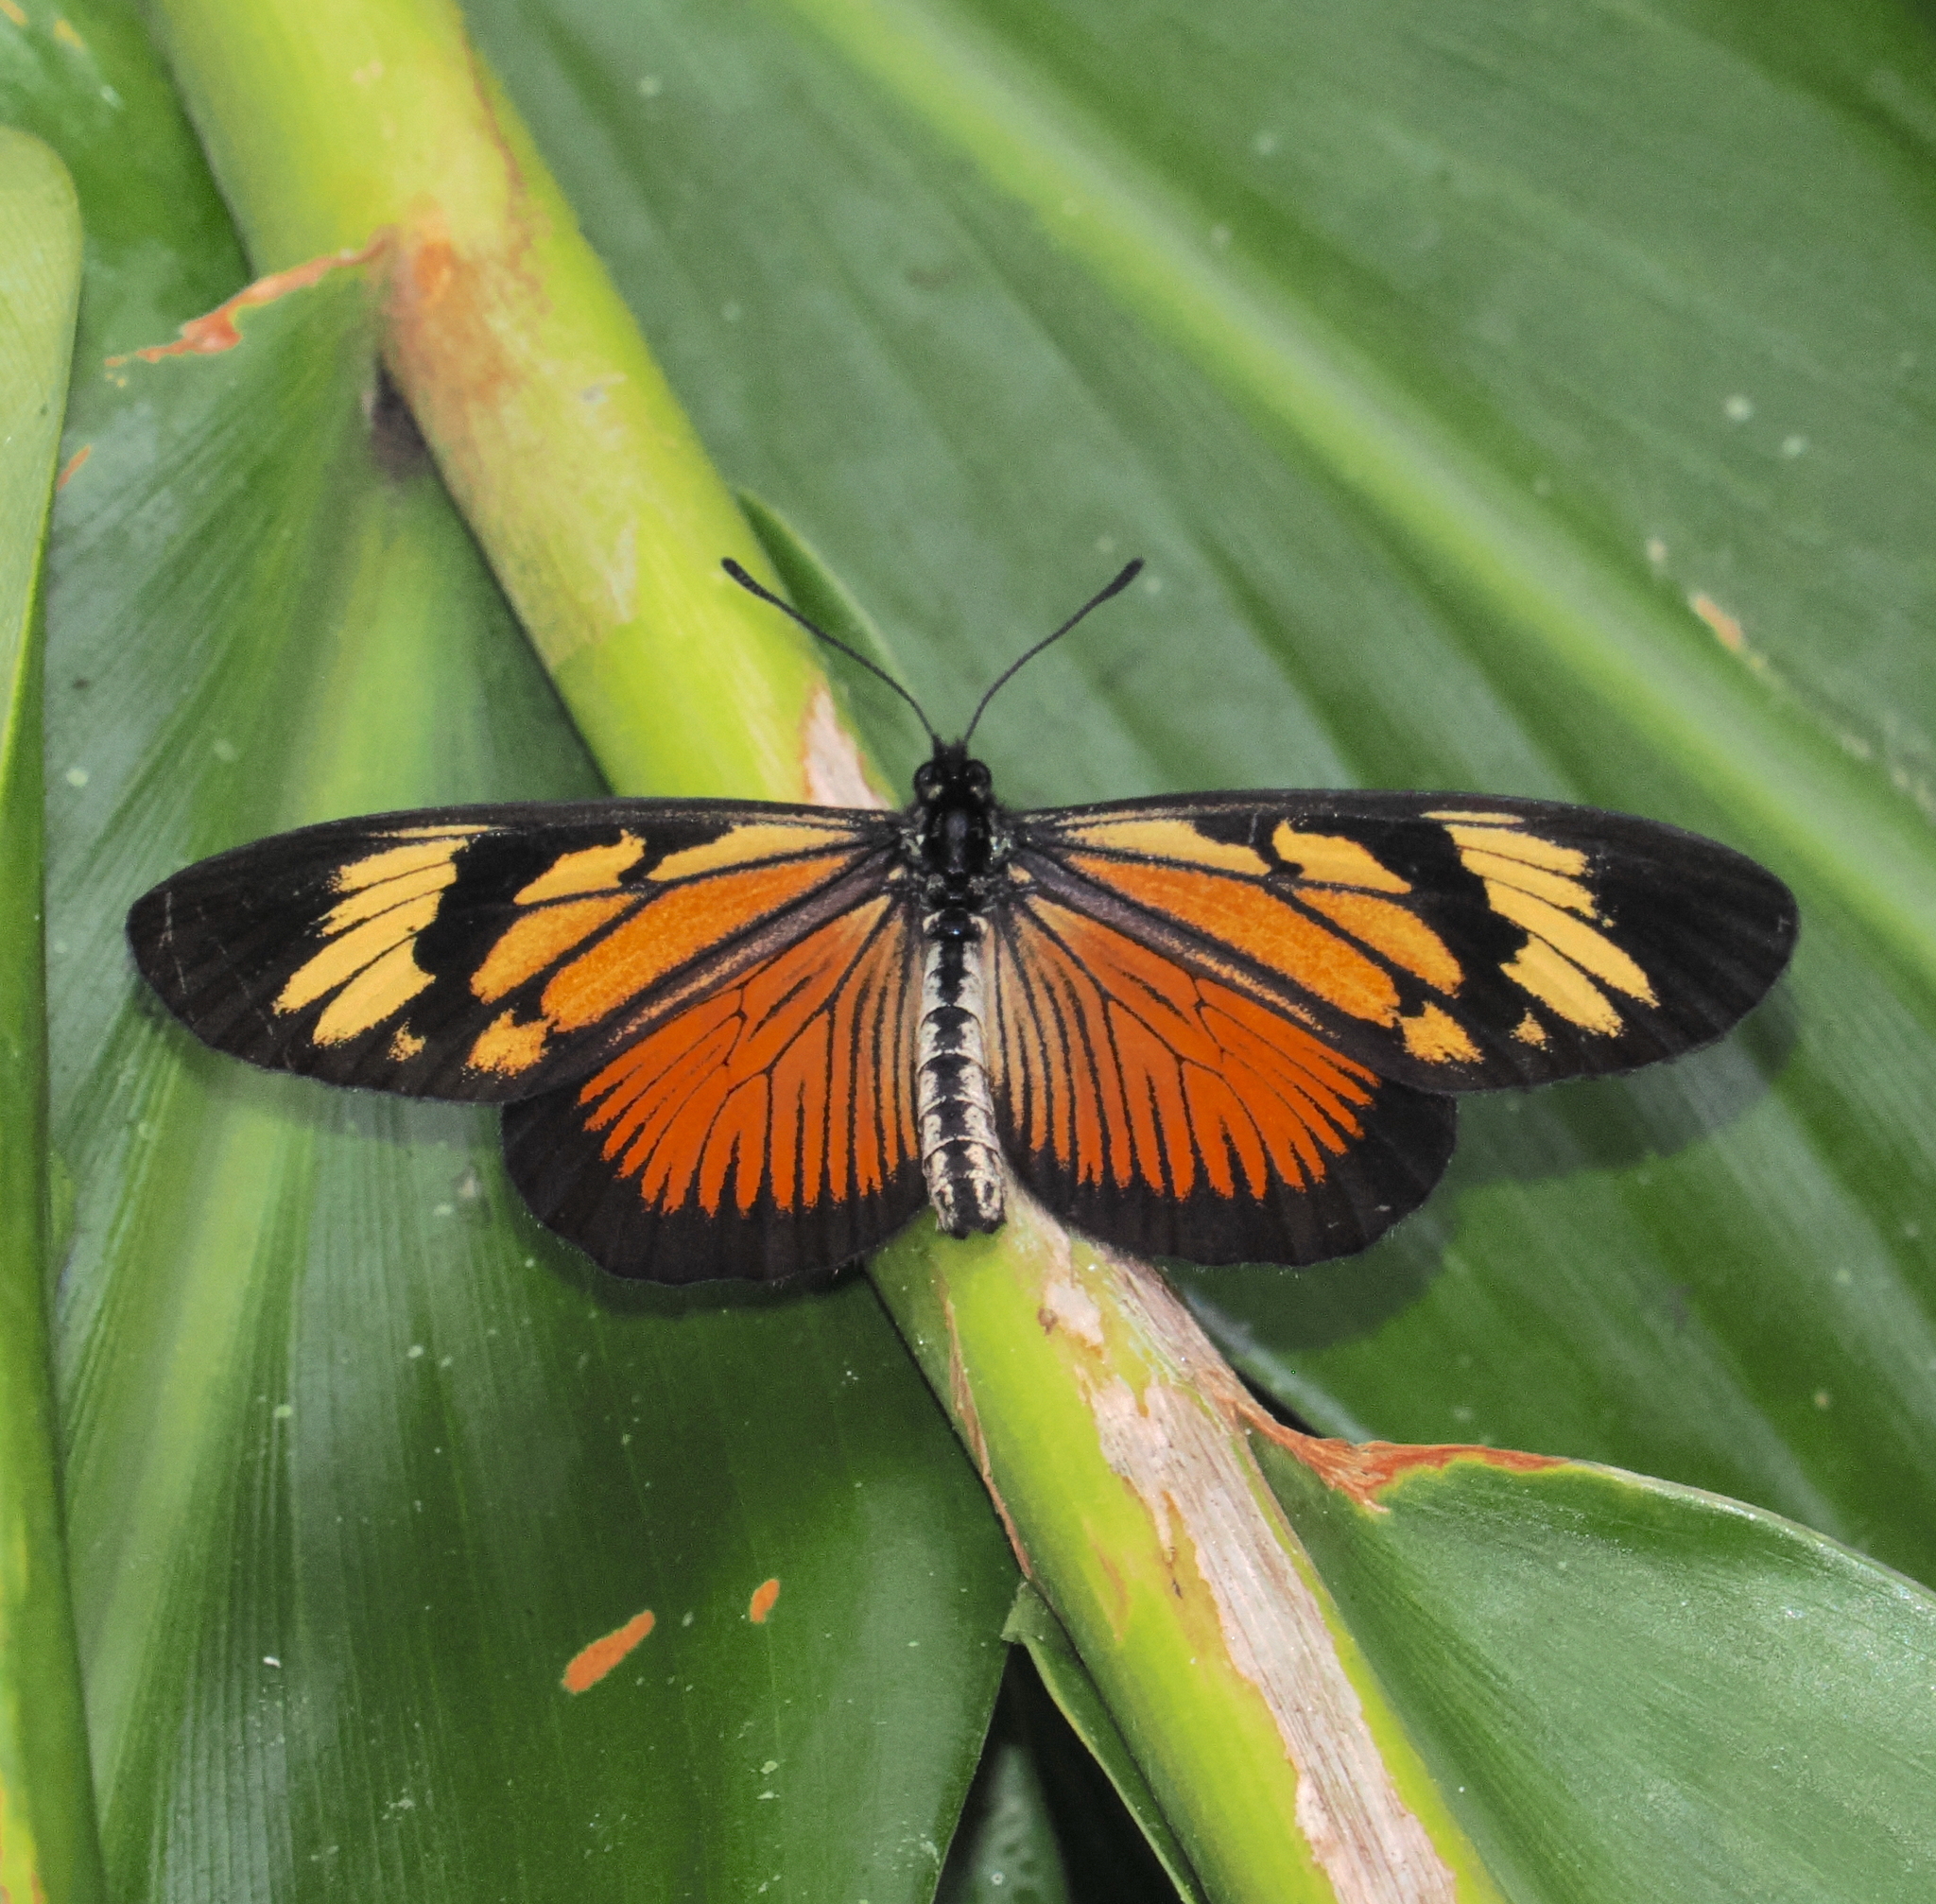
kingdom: Animalia
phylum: Arthropoda
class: Insecta
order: Lepidoptera
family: Nymphalidae
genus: Actinote
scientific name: Actinote pellenea
